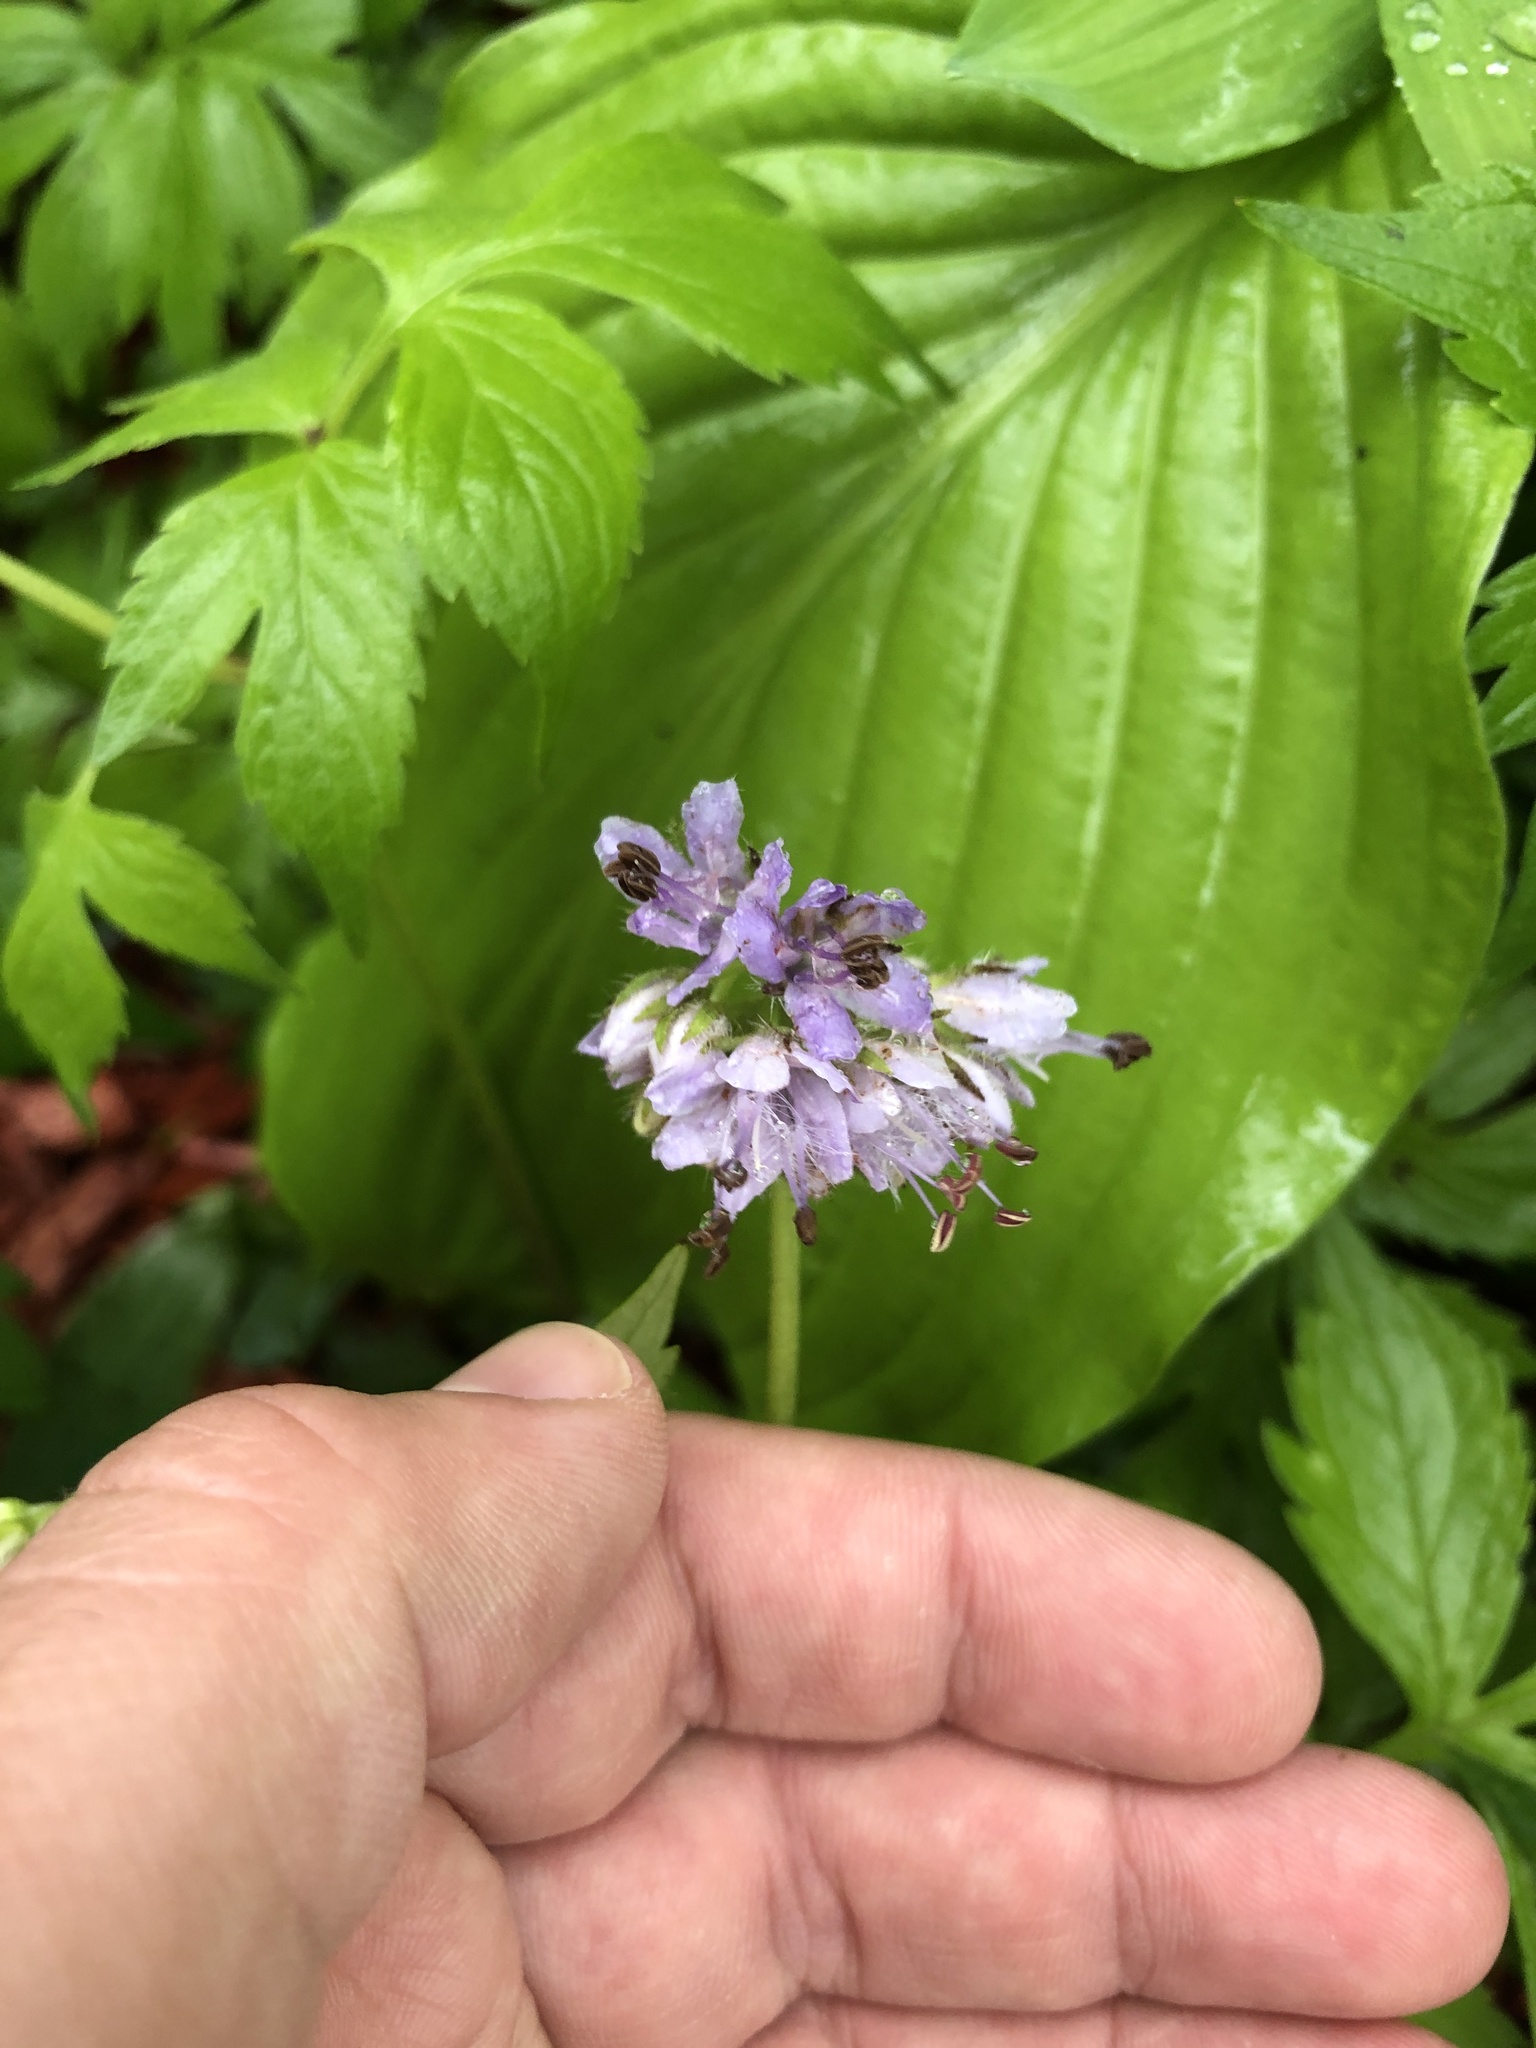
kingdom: Plantae
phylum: Tracheophyta
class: Magnoliopsida
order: Boraginales
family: Hydrophyllaceae
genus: Hydrophyllum
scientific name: Hydrophyllum virginianum
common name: Virginia waterleaf
